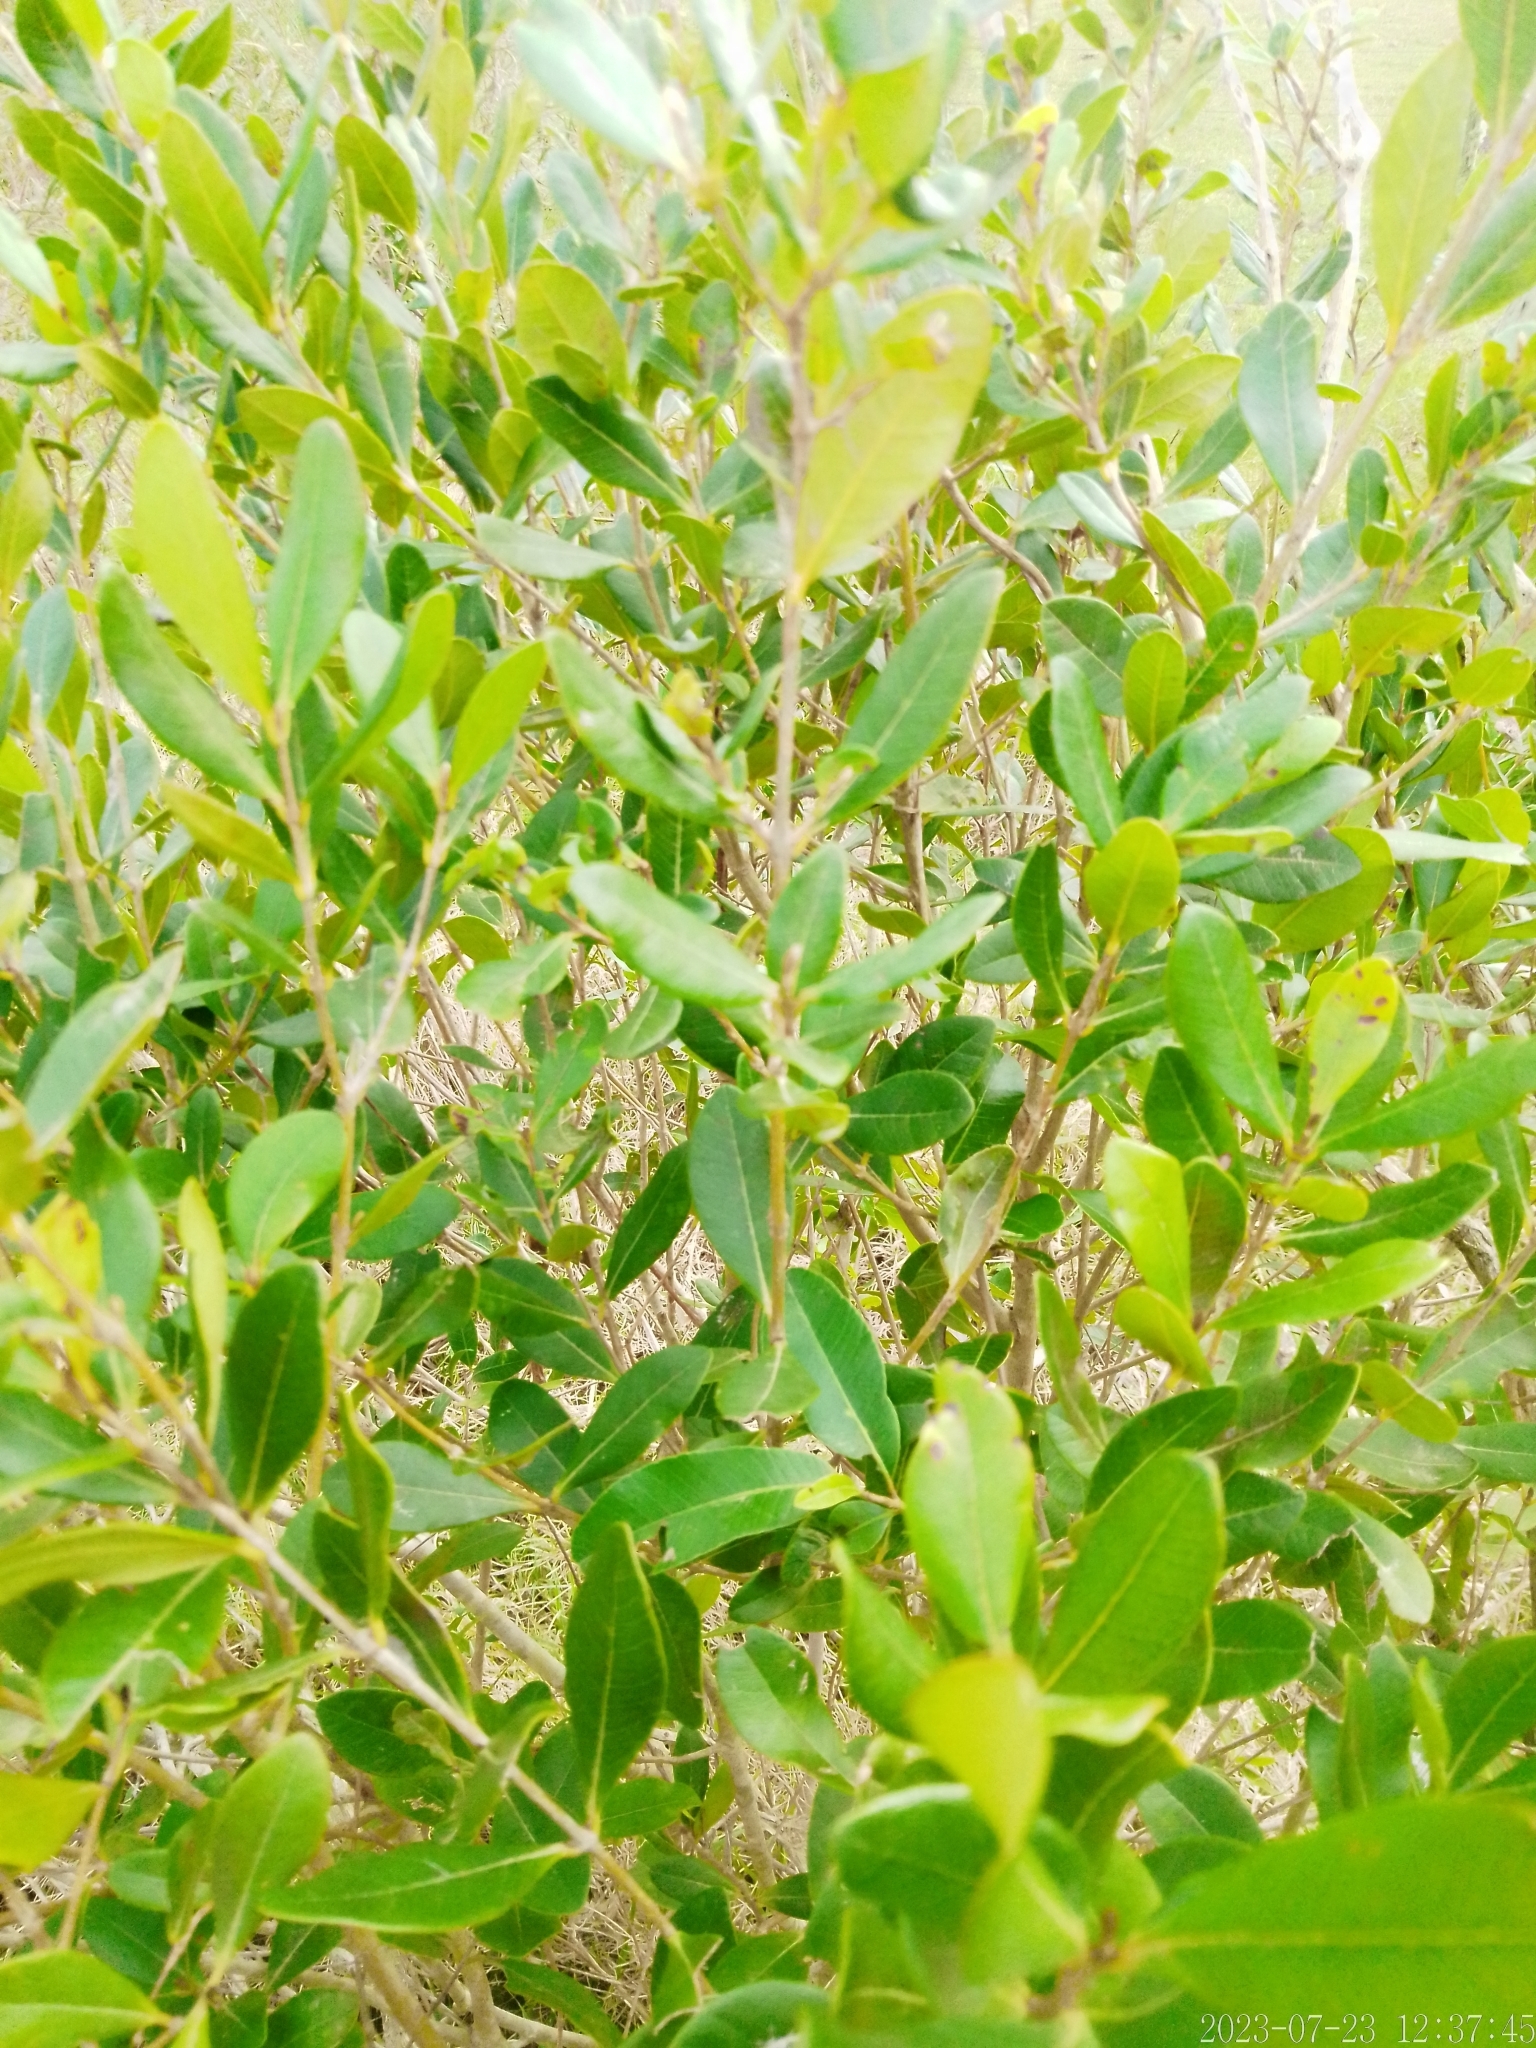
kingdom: Plantae
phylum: Tracheophyta
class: Magnoliopsida
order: Myrtales
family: Myrtaceae
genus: Myrcia
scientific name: Myrcia palustris
